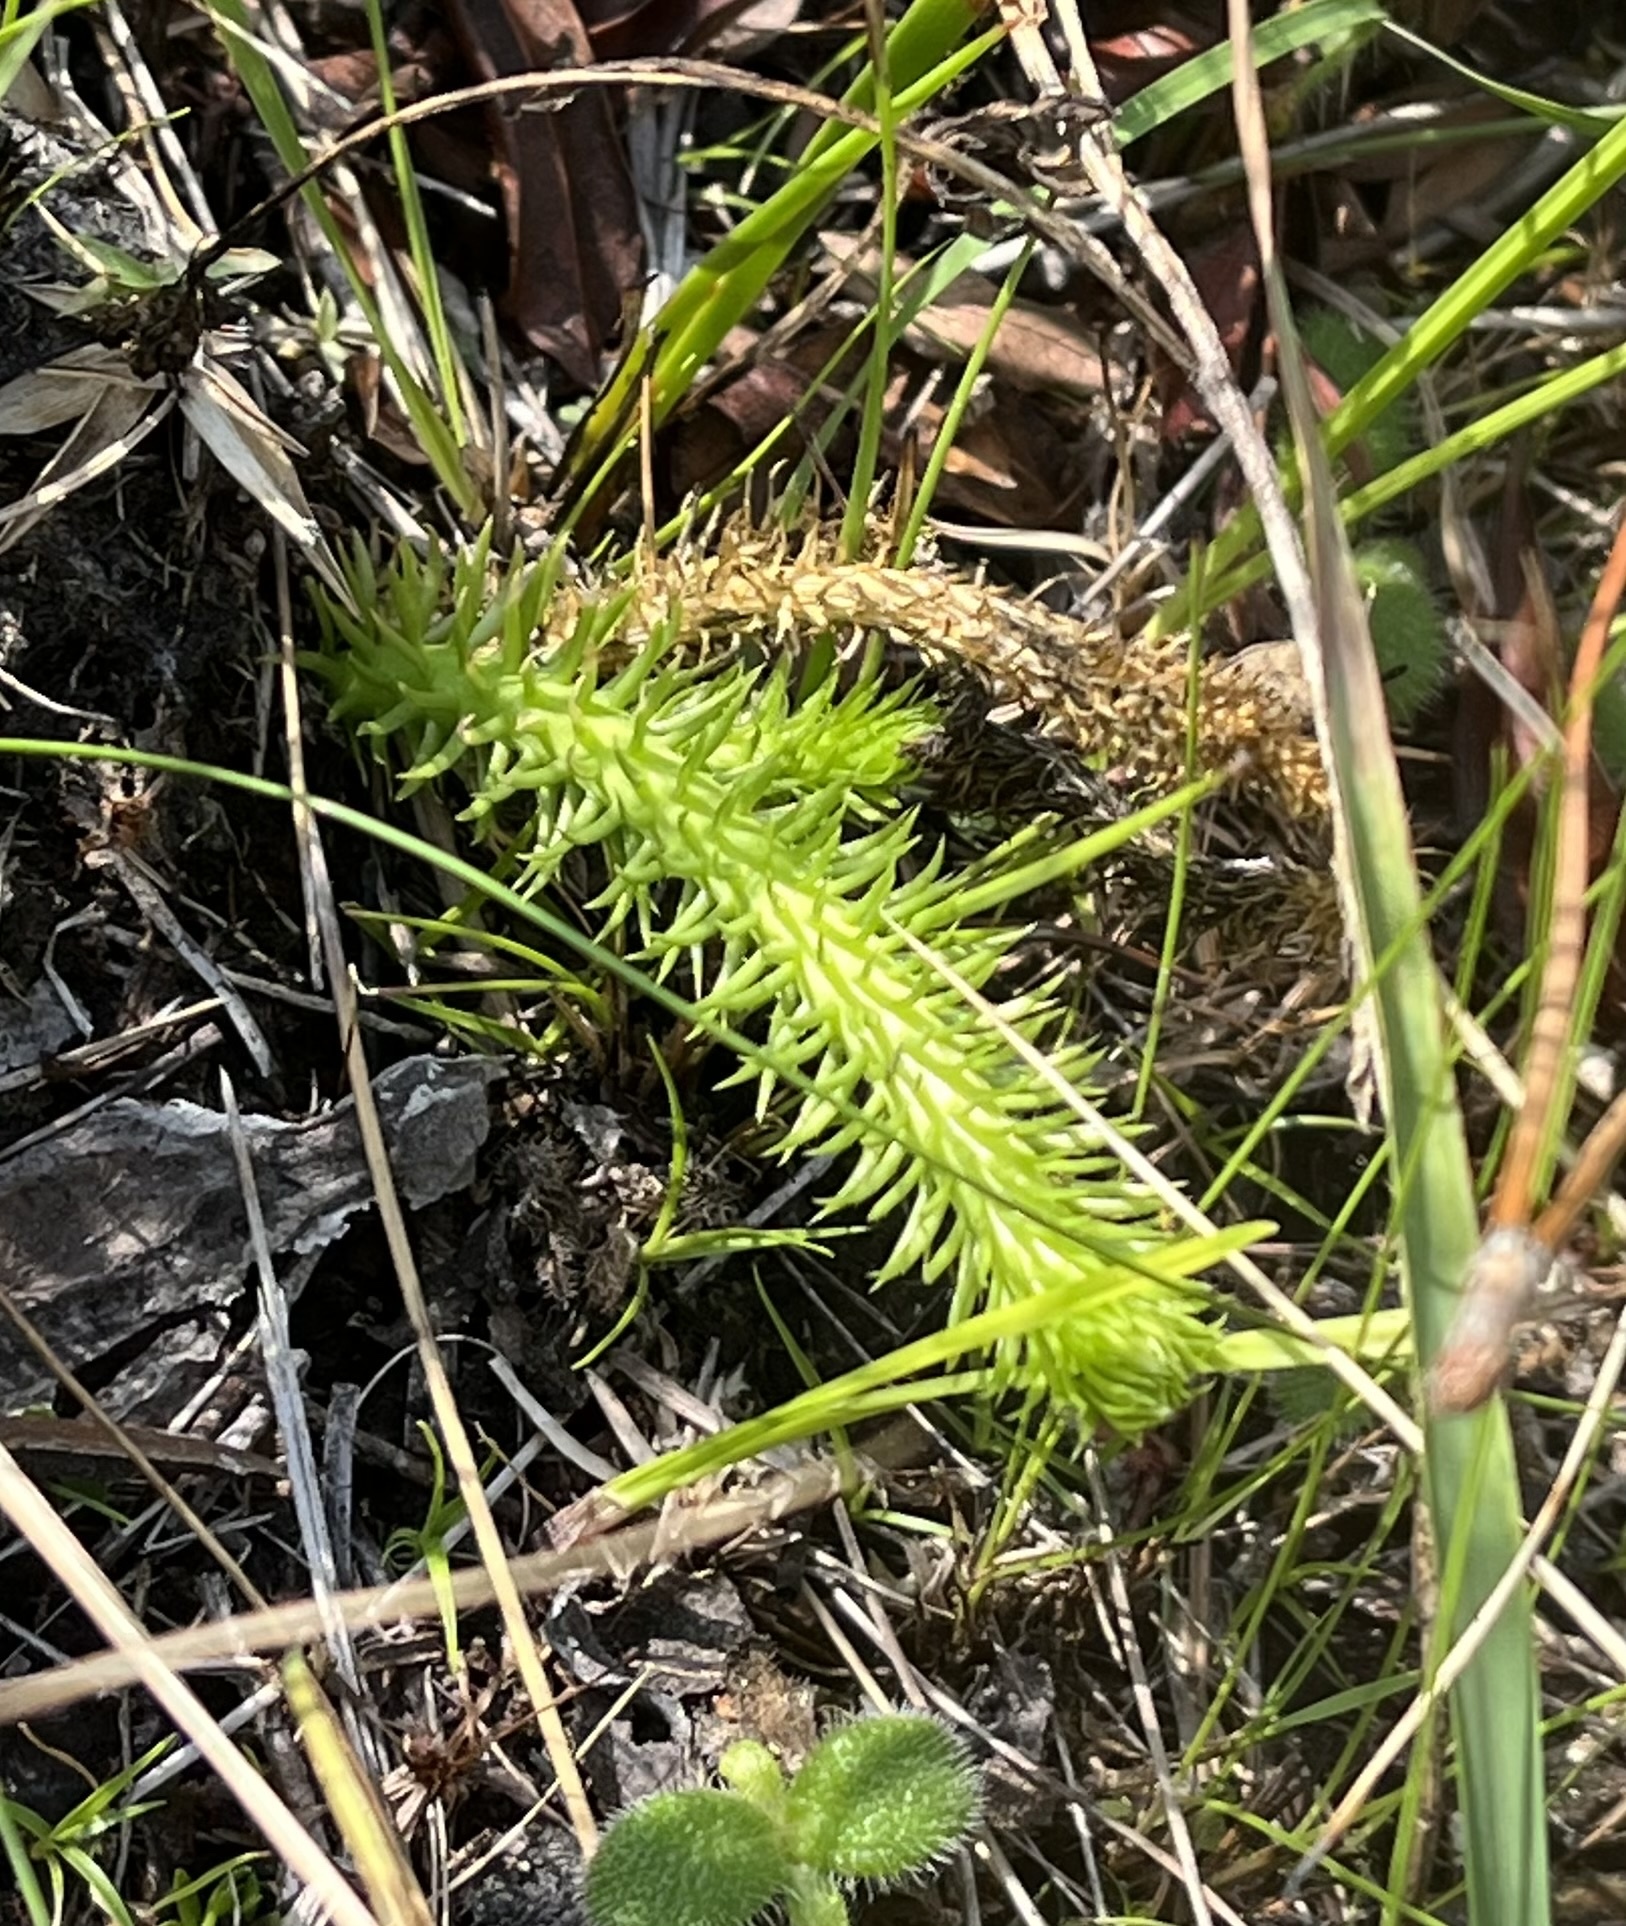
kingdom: Plantae
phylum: Tracheophyta
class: Lycopodiopsida
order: Lycopodiales
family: Lycopodiaceae
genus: Lycopodiella
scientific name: Lycopodiella alopecuroides
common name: Foxtail clubmoss
